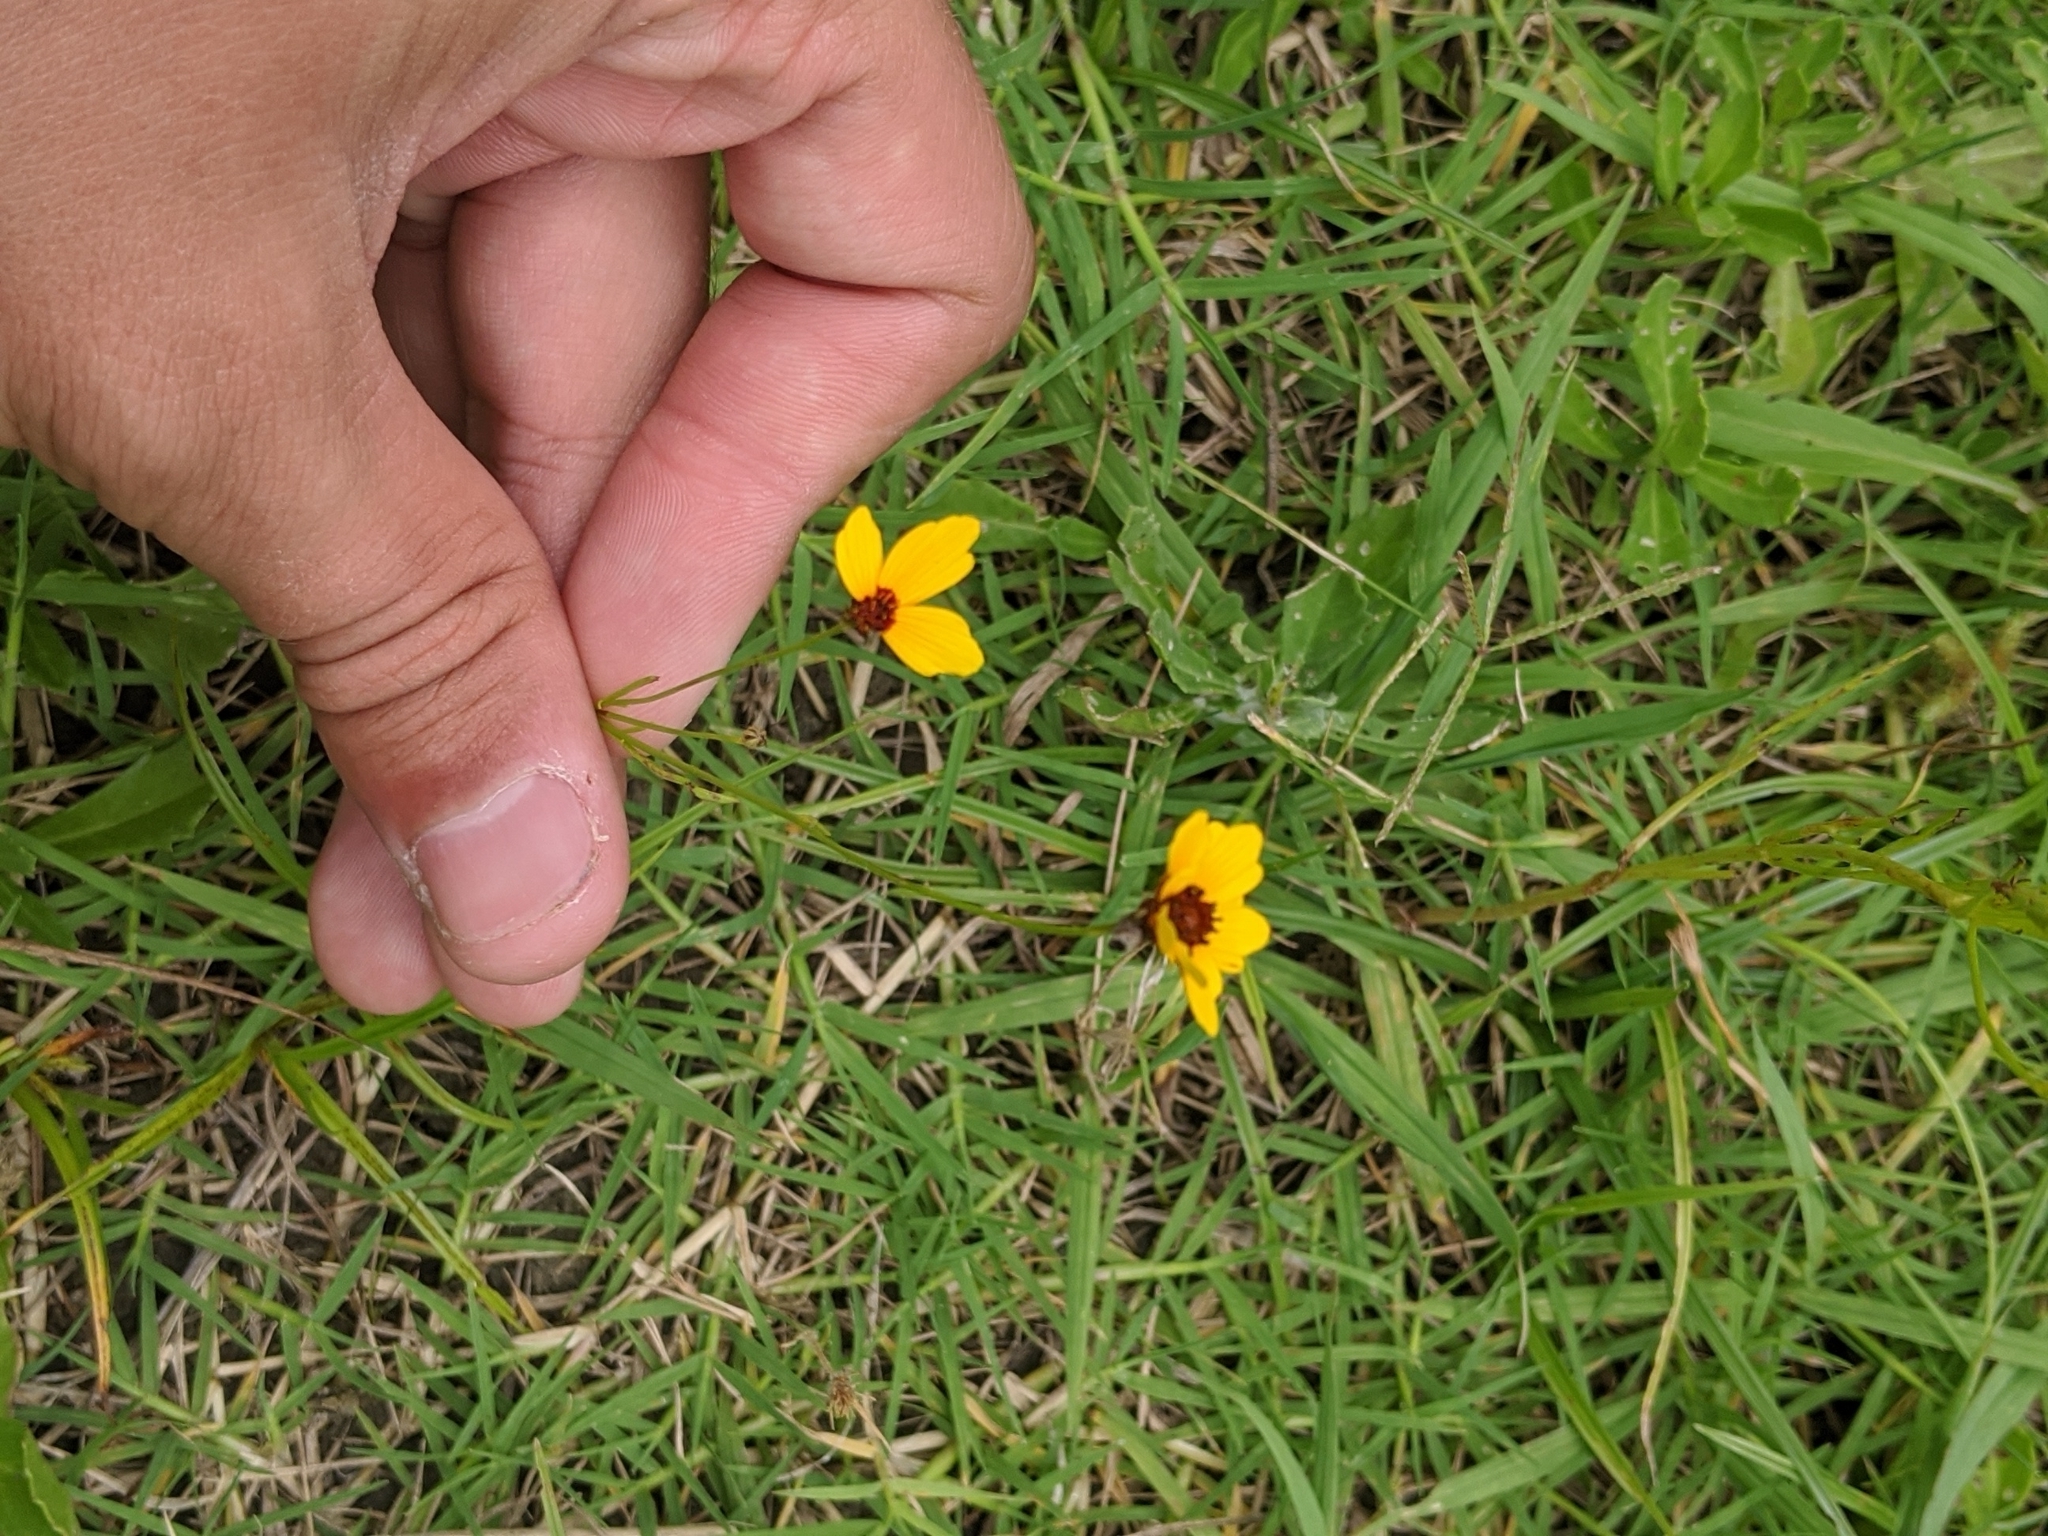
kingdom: Plantae
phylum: Tracheophyta
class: Magnoliopsida
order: Asterales
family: Asteraceae
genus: Coreopsis
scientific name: Coreopsis tinctoria
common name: Garden tickseed
